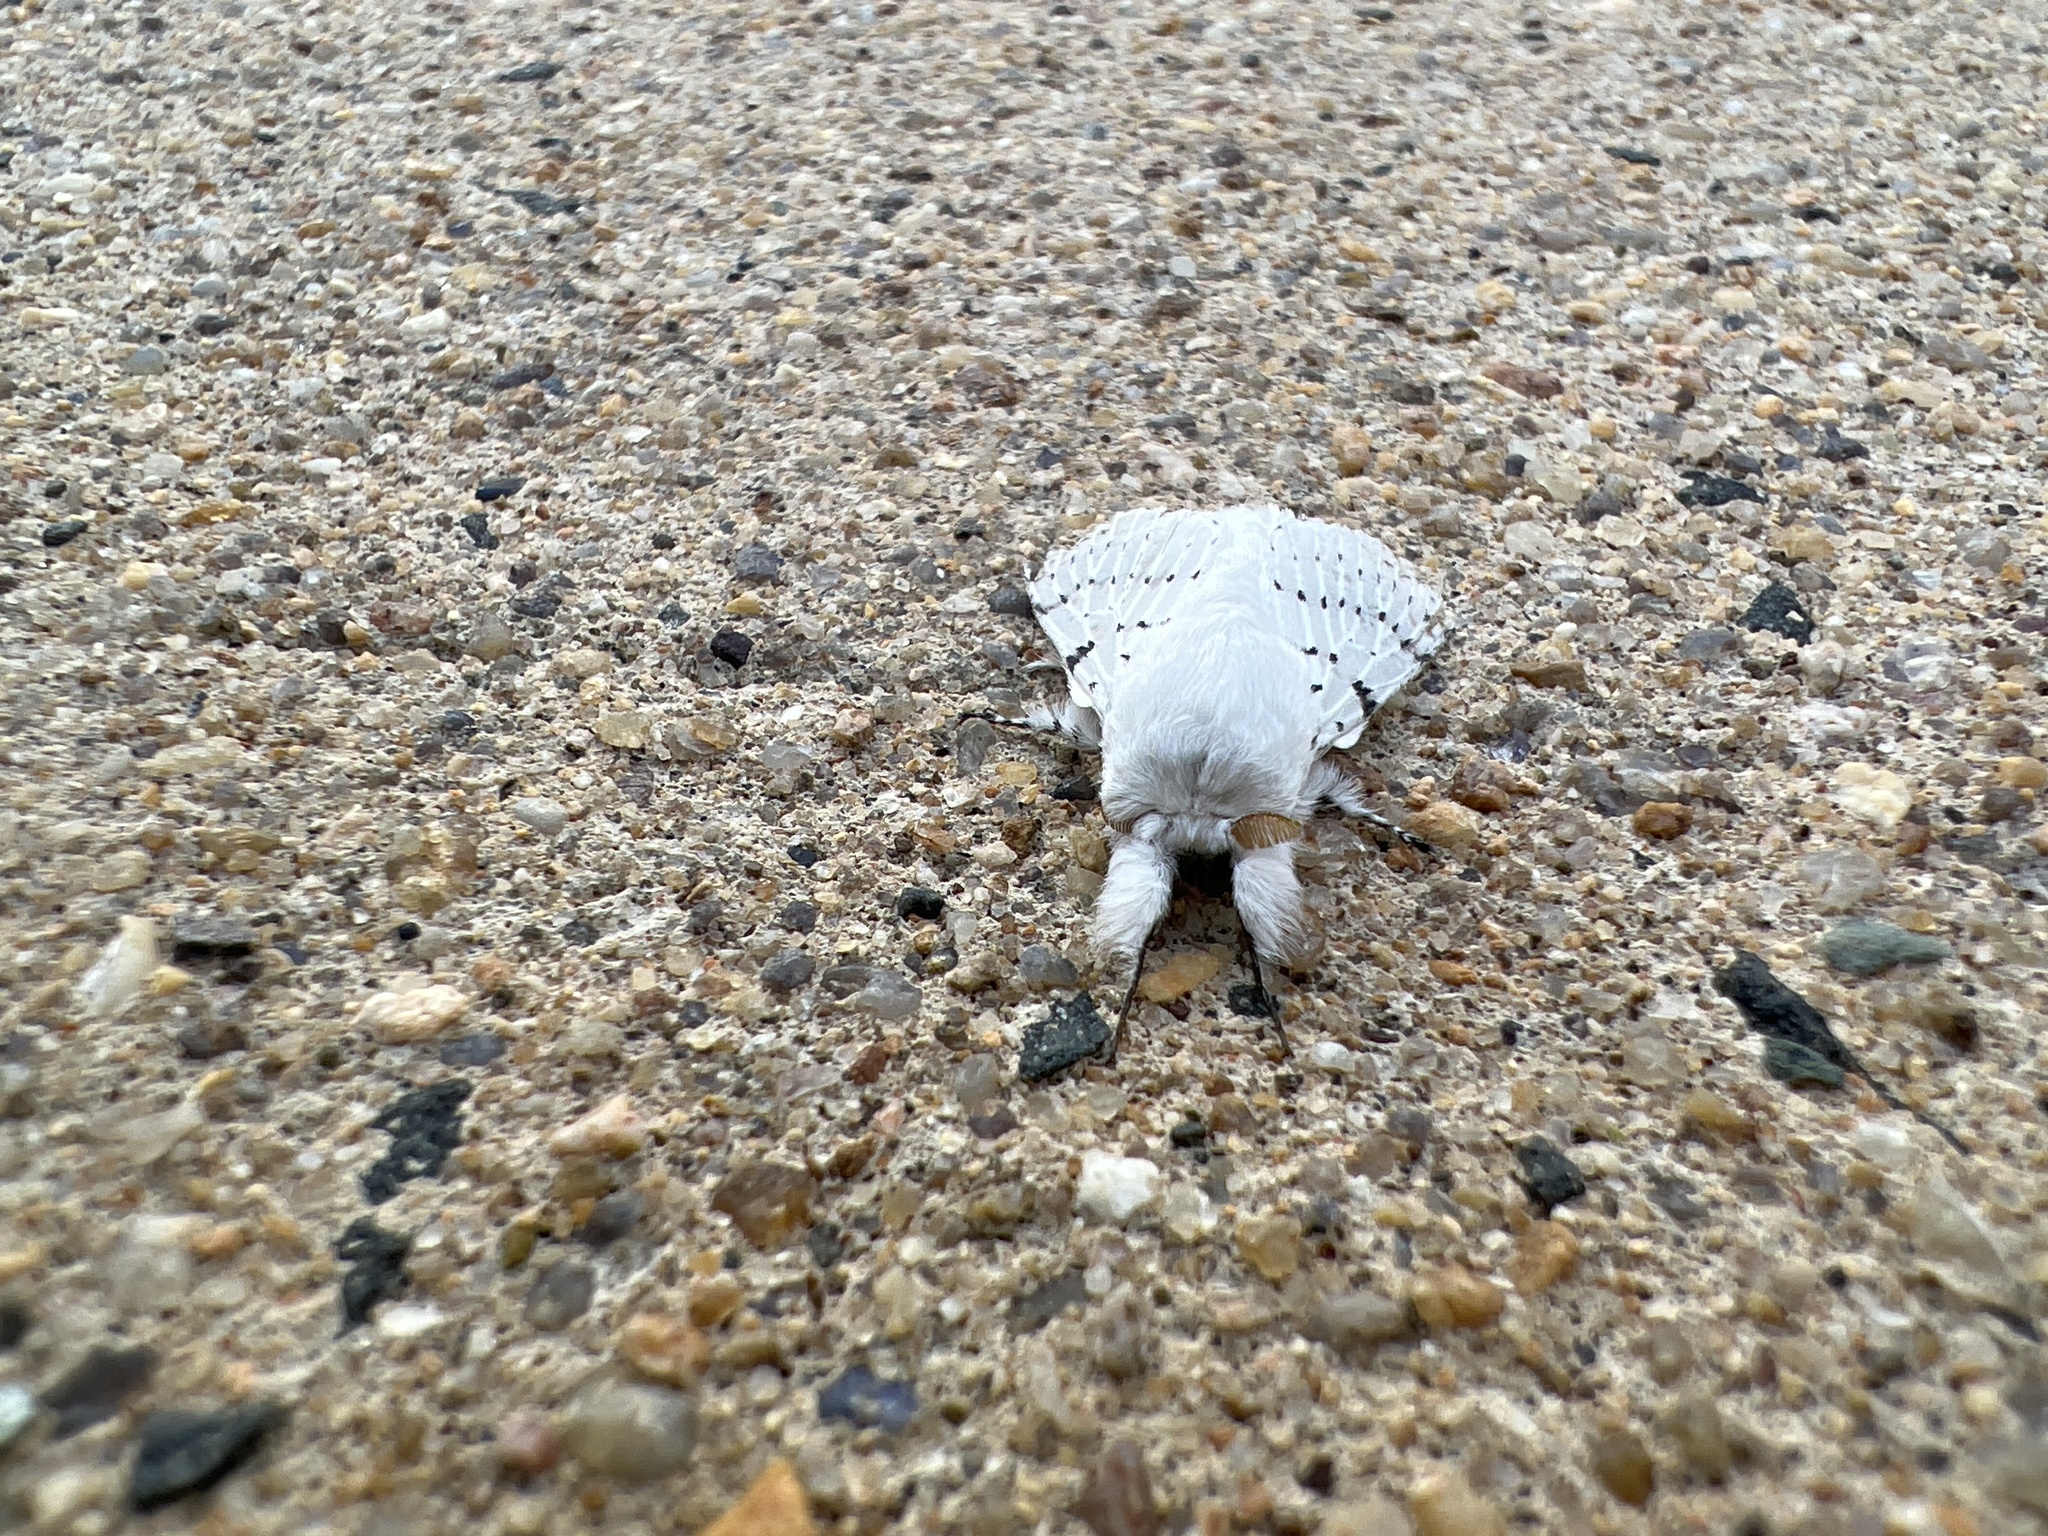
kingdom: Animalia
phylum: Arthropoda
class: Insecta
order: Lepidoptera
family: Lasiocampidae
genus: Artace
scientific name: Artace cribrarius
